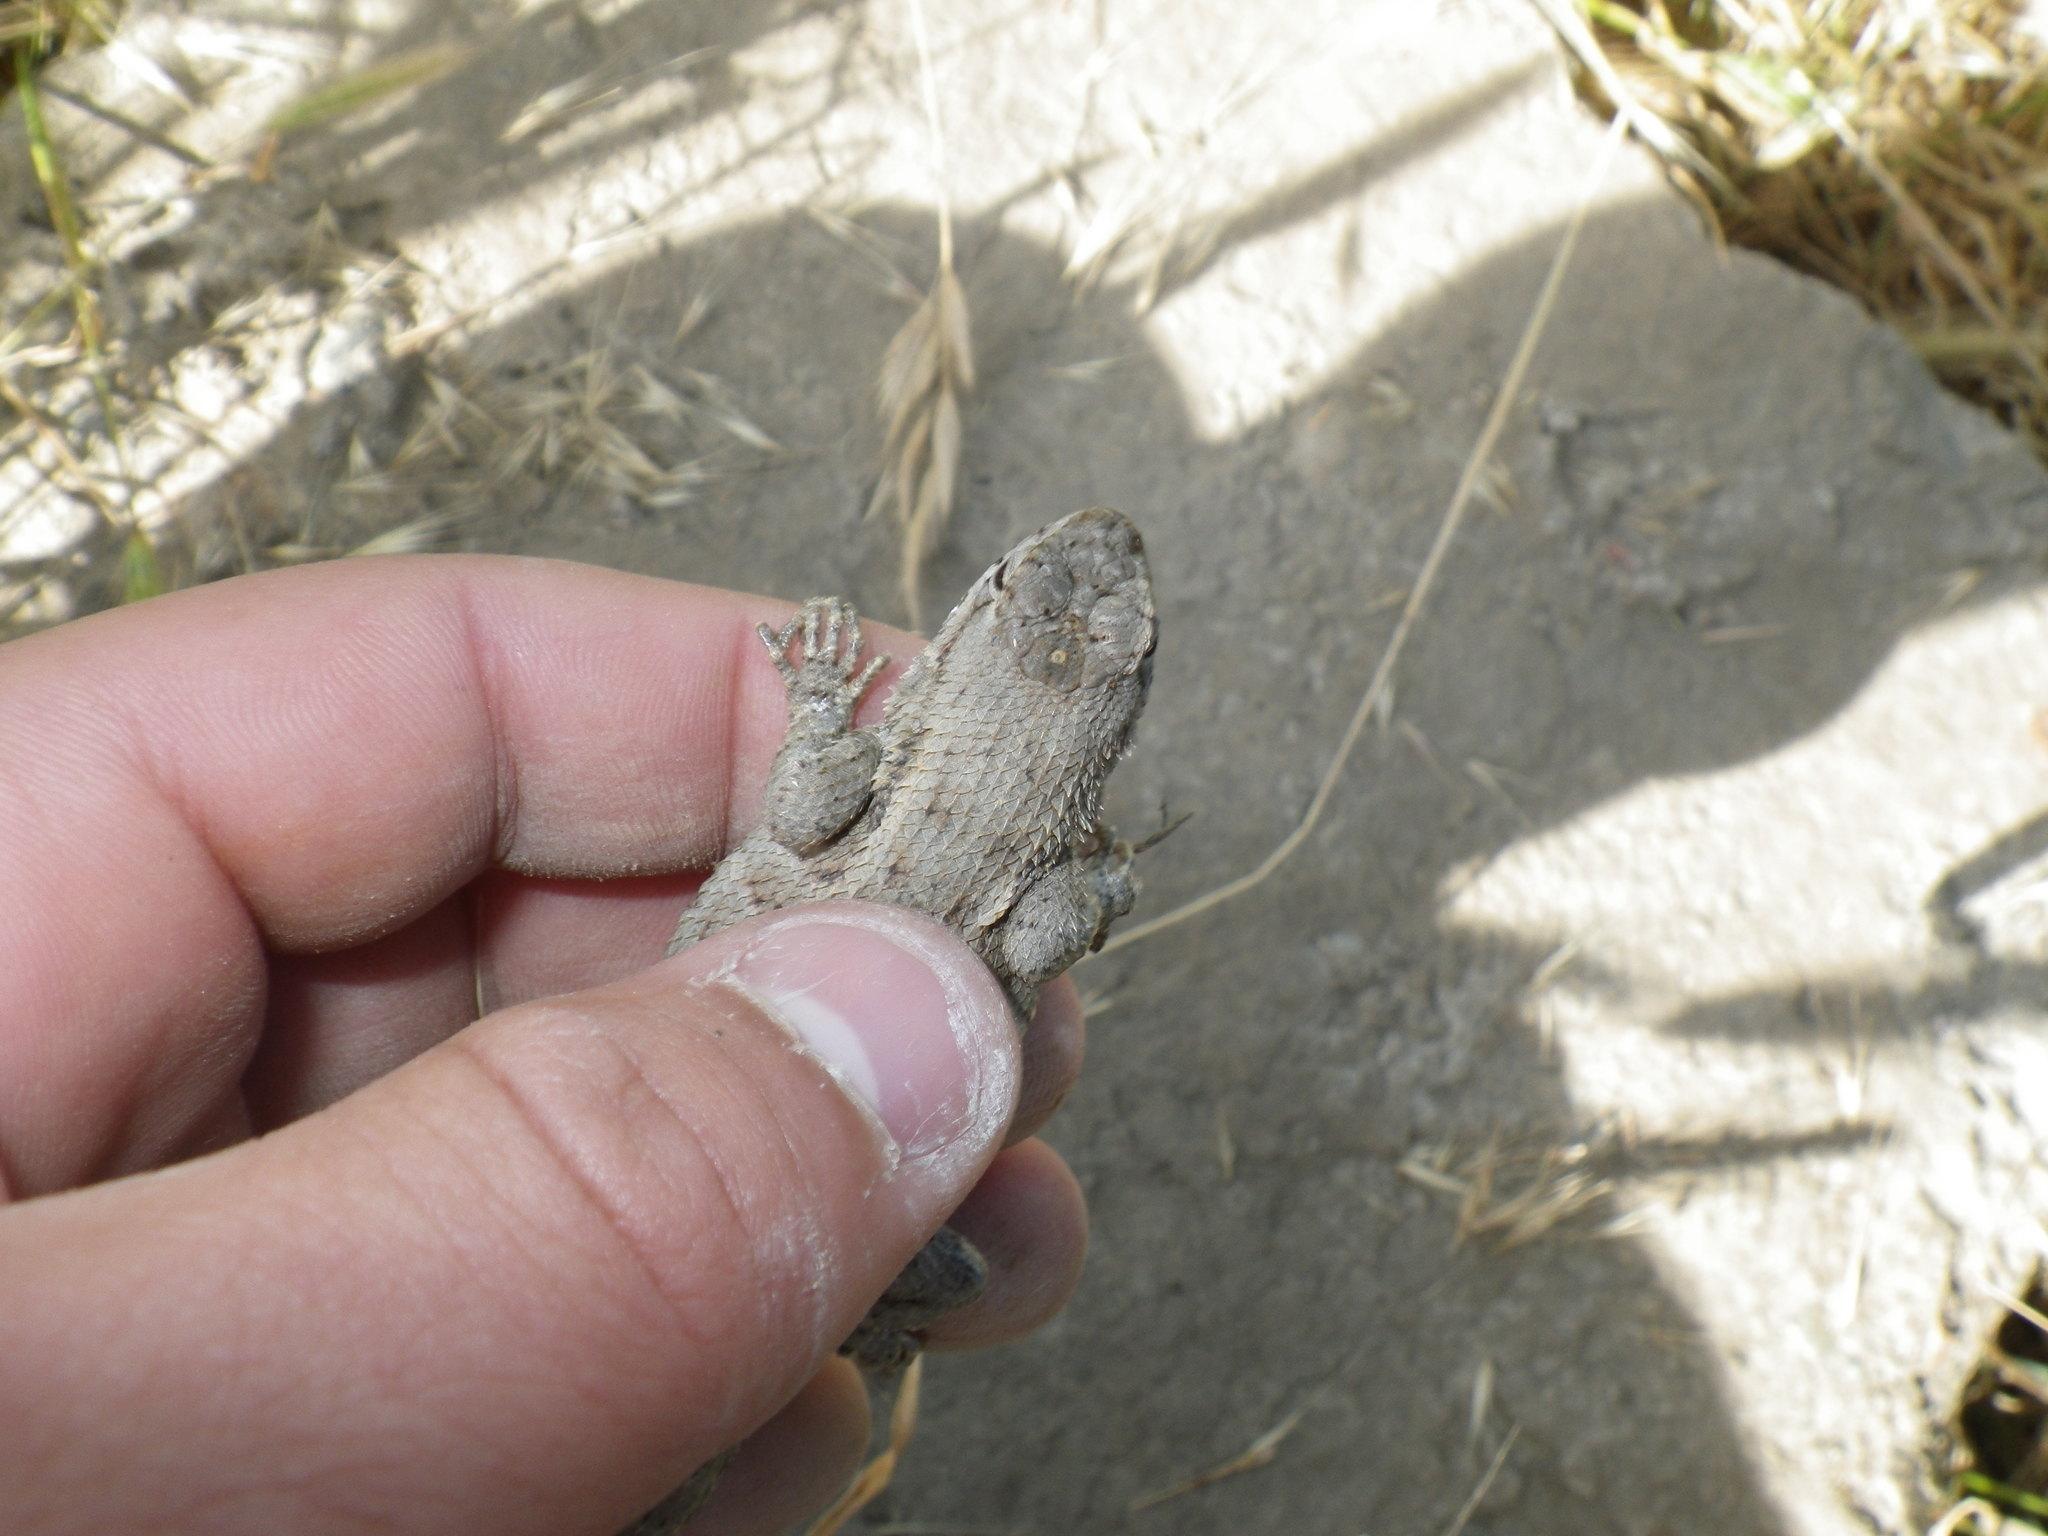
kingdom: Animalia
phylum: Chordata
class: Squamata
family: Phrynosomatidae
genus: Sceloporus
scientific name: Sceloporus occidentalis
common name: Western fence lizard
